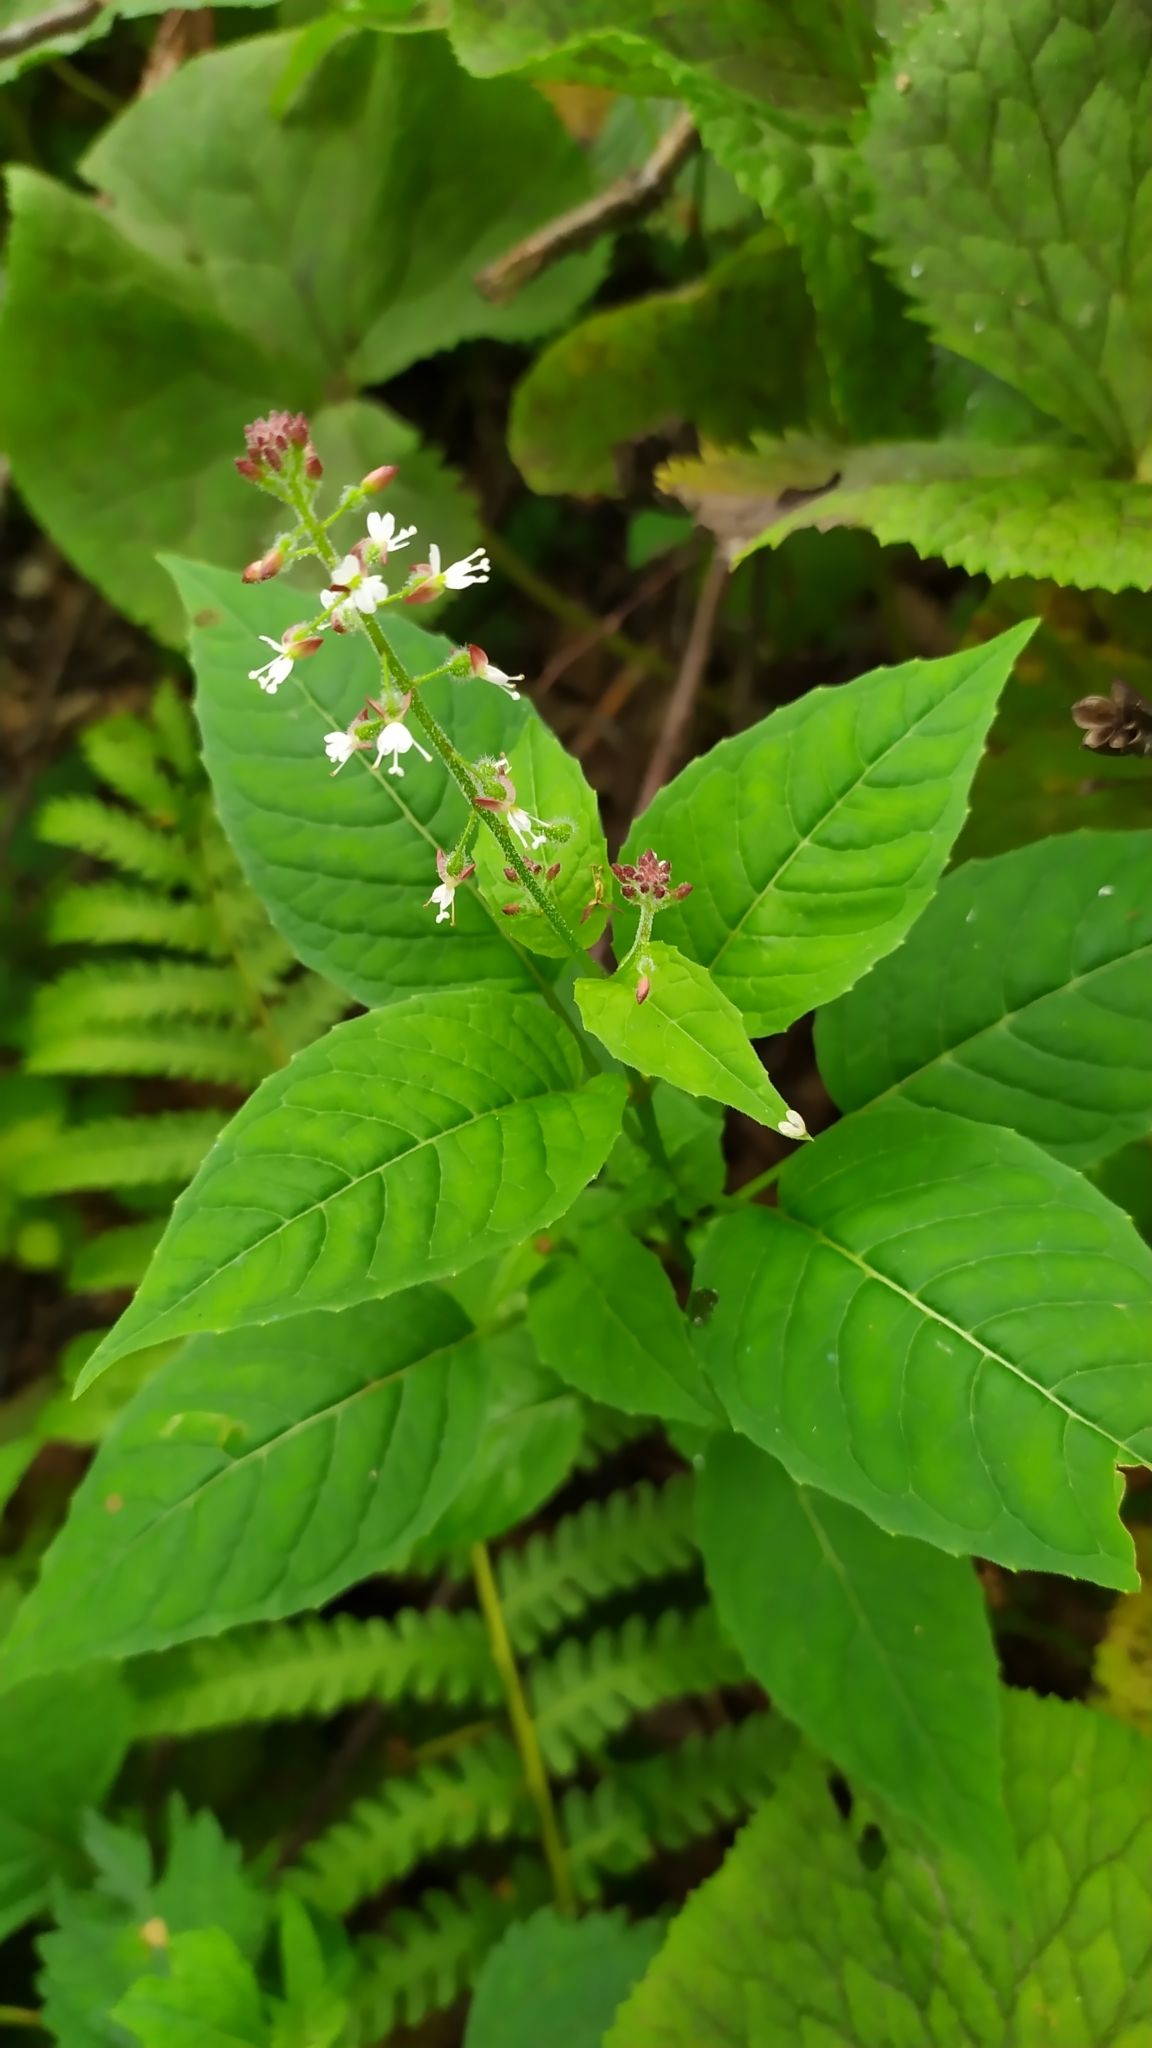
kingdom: Plantae
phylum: Tracheophyta
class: Magnoliopsida
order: Myrtales
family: Onagraceae
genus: Circaea
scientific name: Circaea canadensis
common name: Broad-leaved enchanter's nightshade
